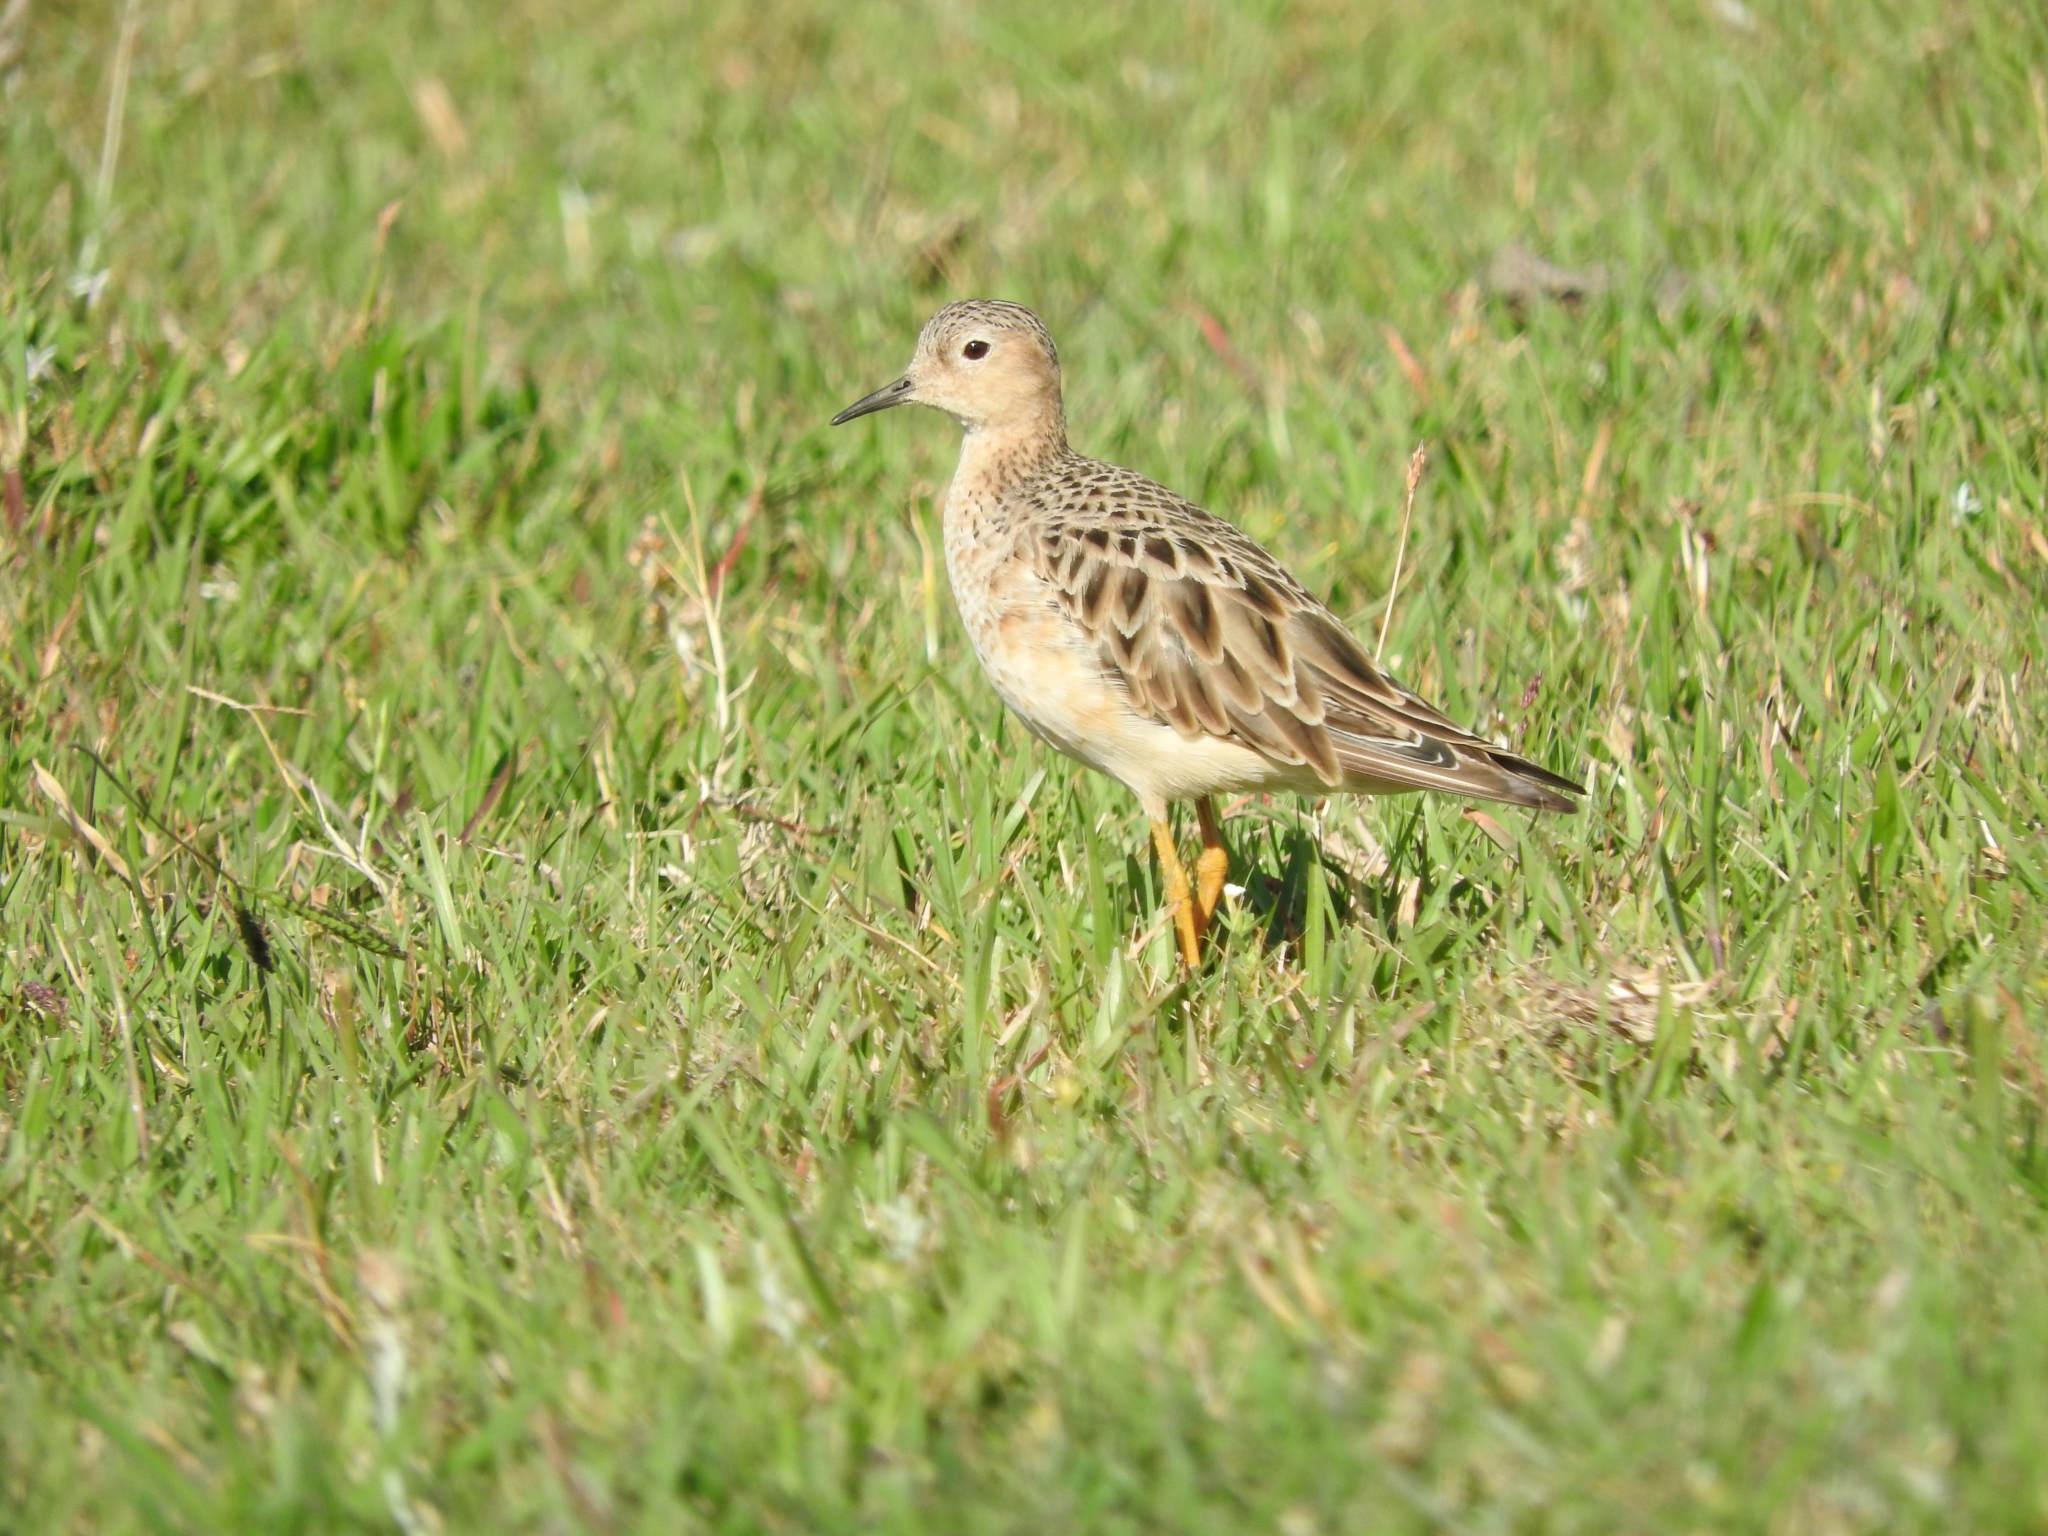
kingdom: Animalia
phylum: Chordata
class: Aves
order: Charadriiformes
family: Scolopacidae
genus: Calidris
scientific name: Calidris subruficollis
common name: Buff-breasted sandpiper
